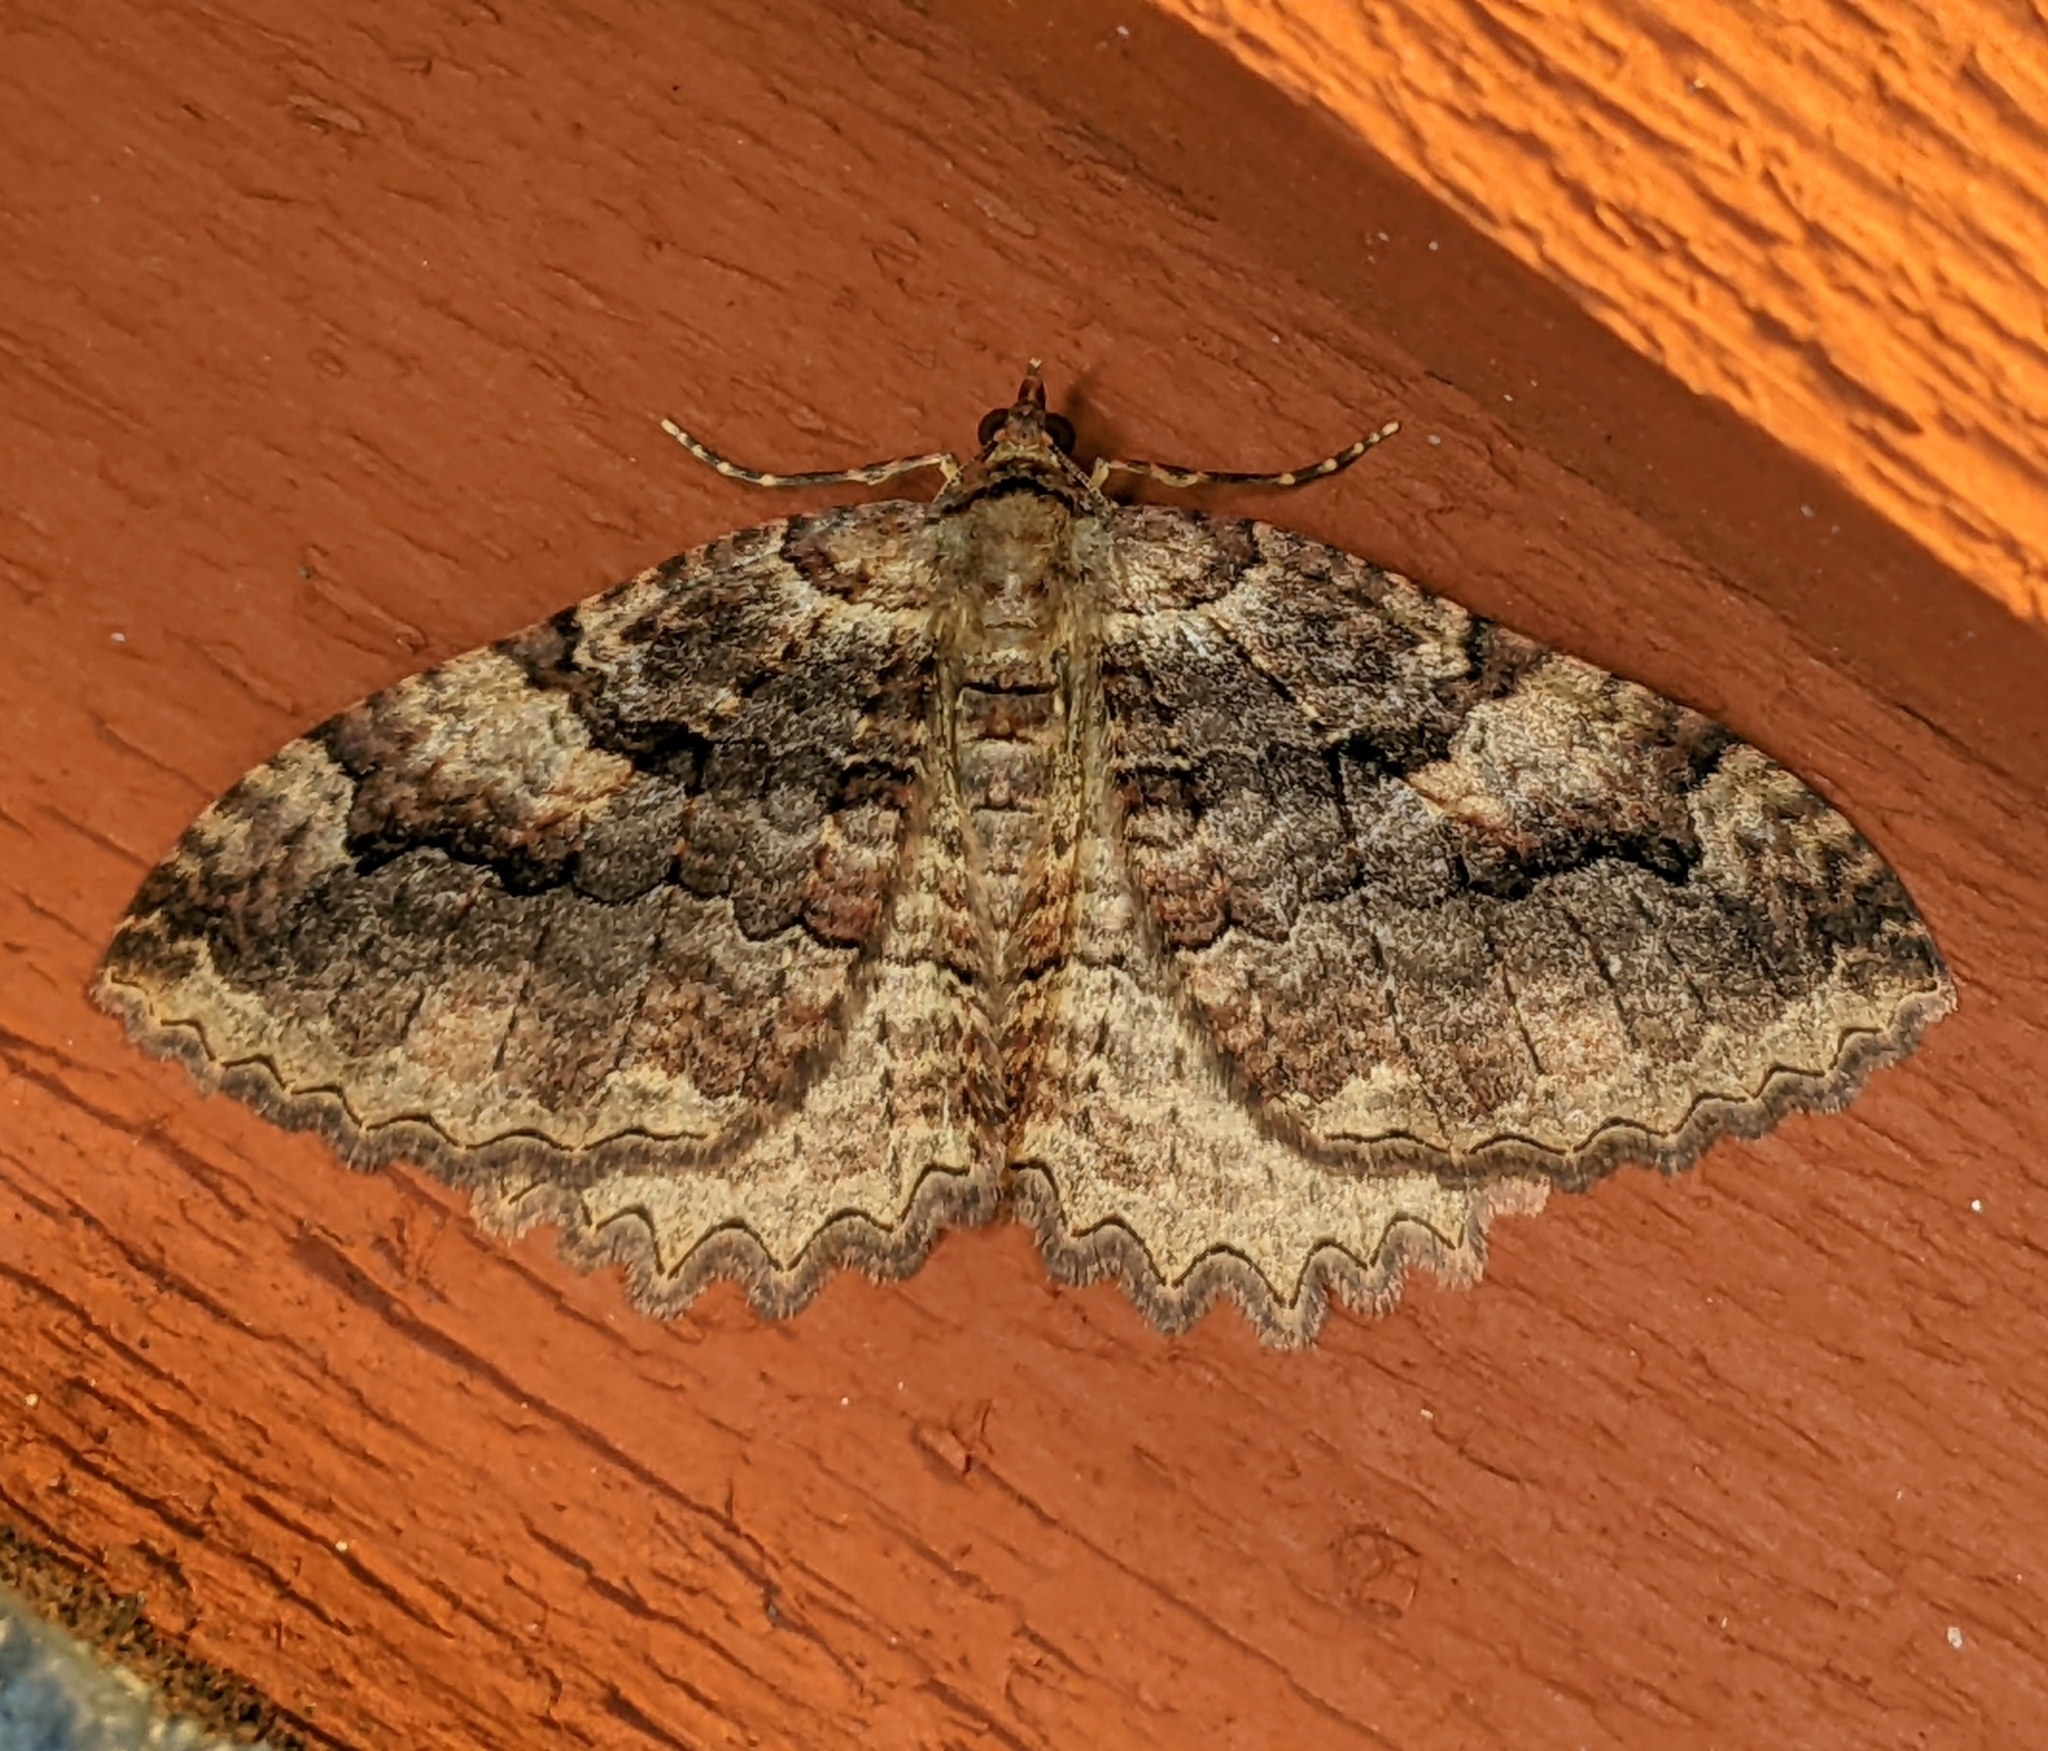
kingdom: Animalia
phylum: Arthropoda
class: Insecta
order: Lepidoptera
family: Geometridae
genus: Triphosa
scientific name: Triphosa haesitata
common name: Tissue moth
